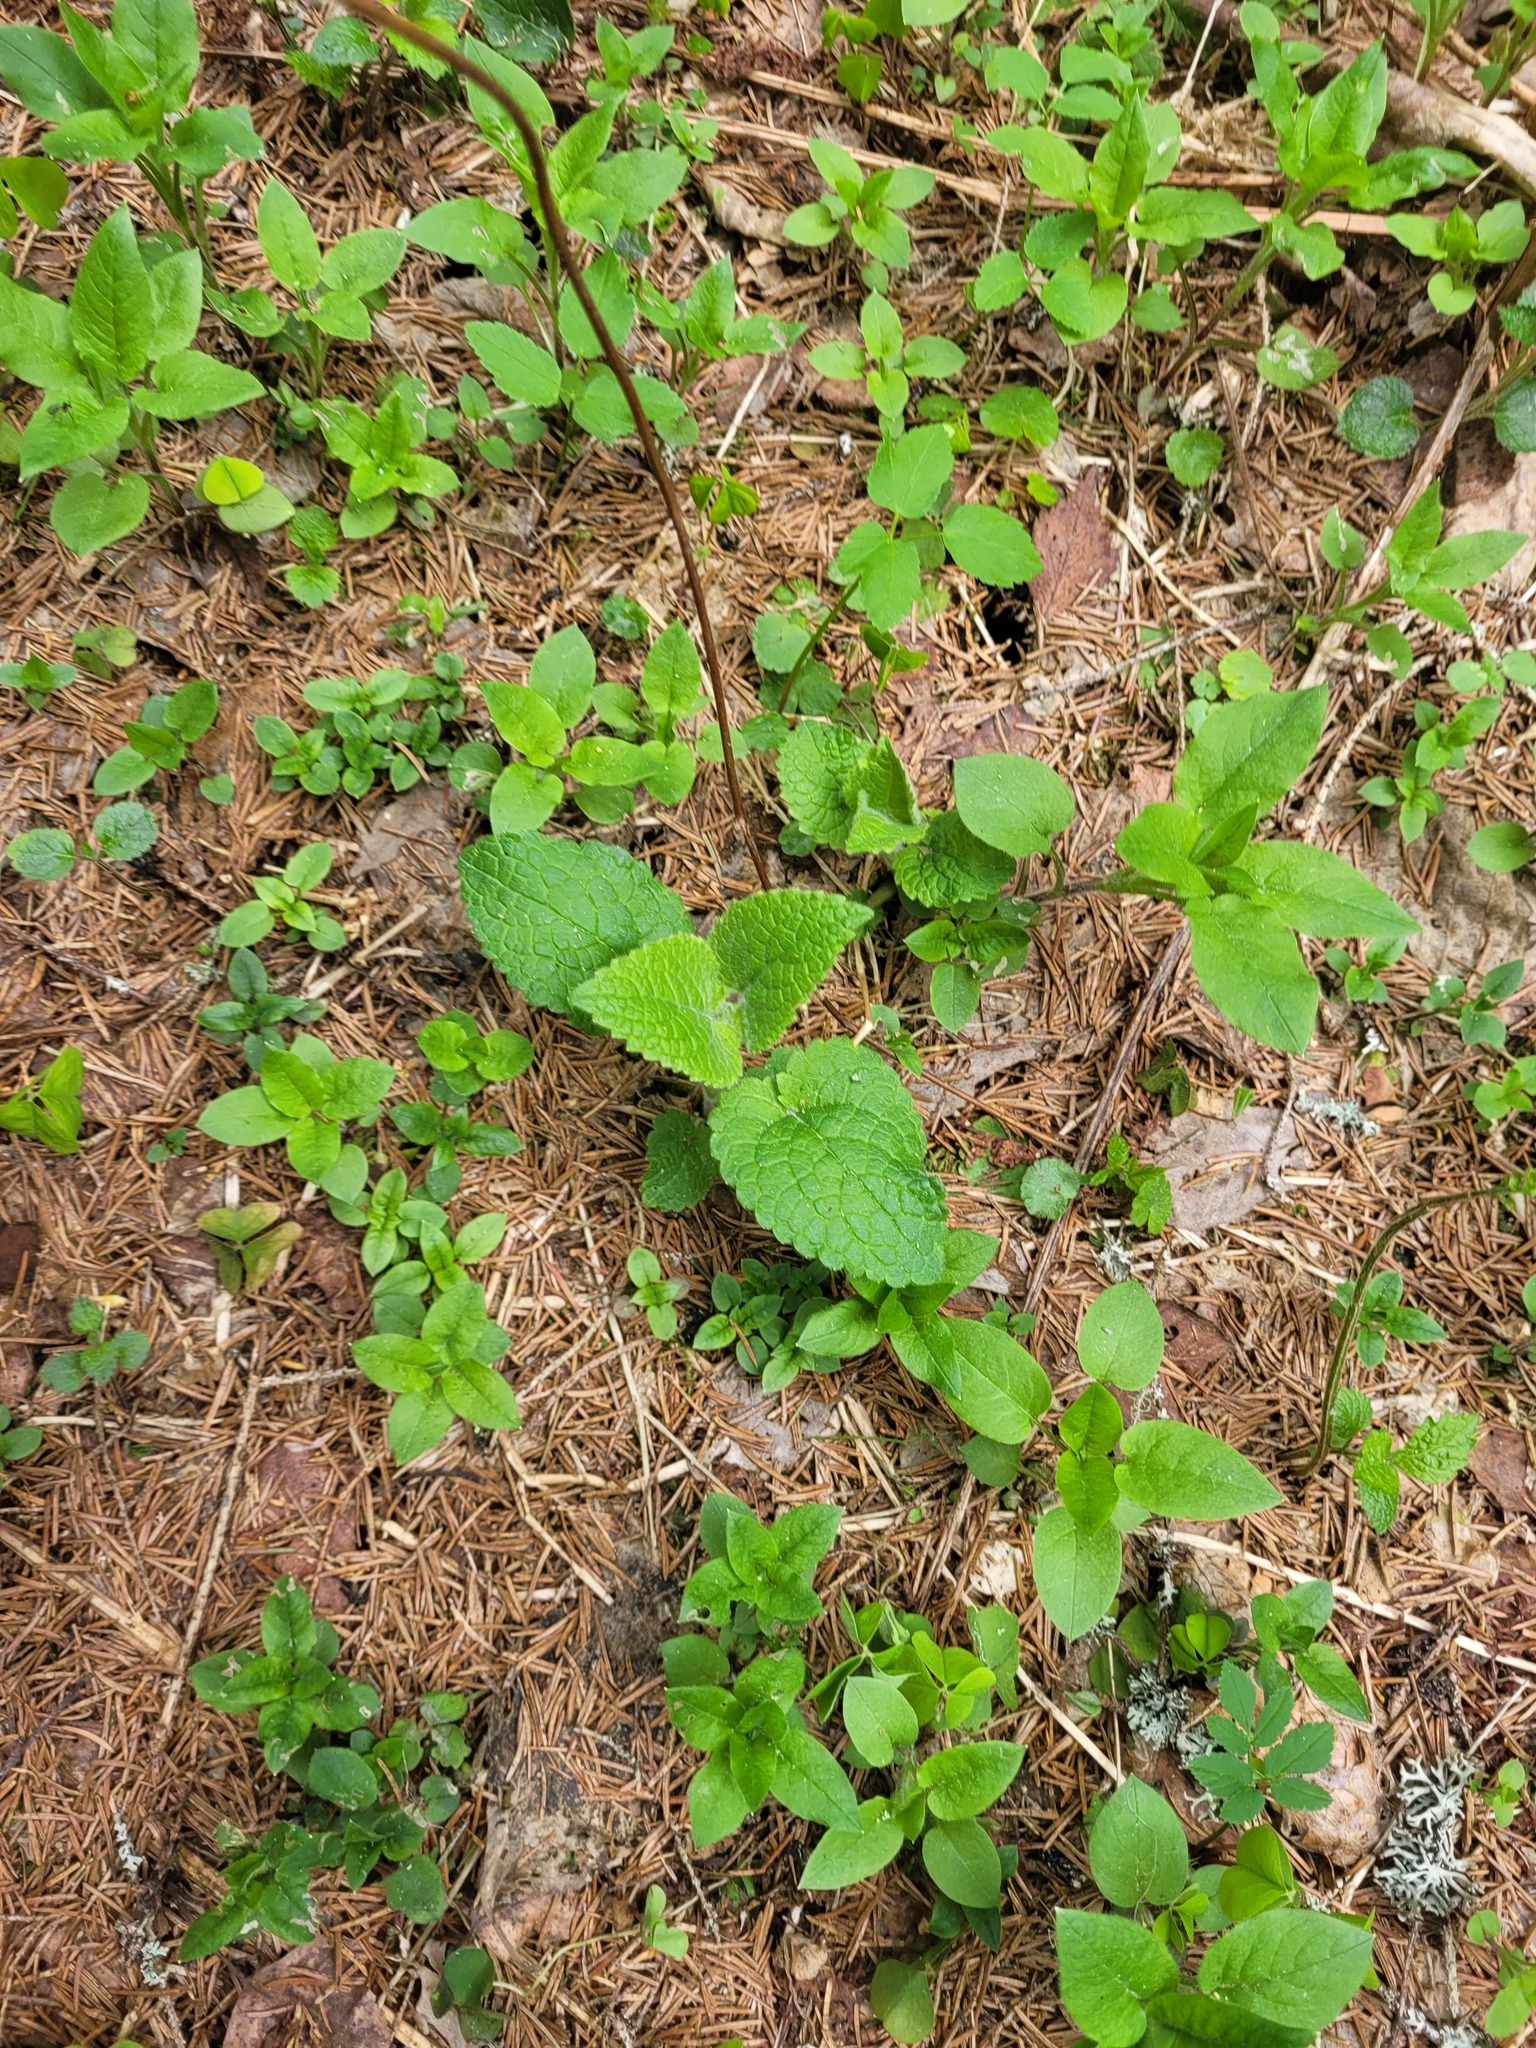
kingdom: Plantae
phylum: Tracheophyta
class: Magnoliopsida
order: Lamiales
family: Lamiaceae
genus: Stachys
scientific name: Stachys sylvatica
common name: Hedge woundwort
